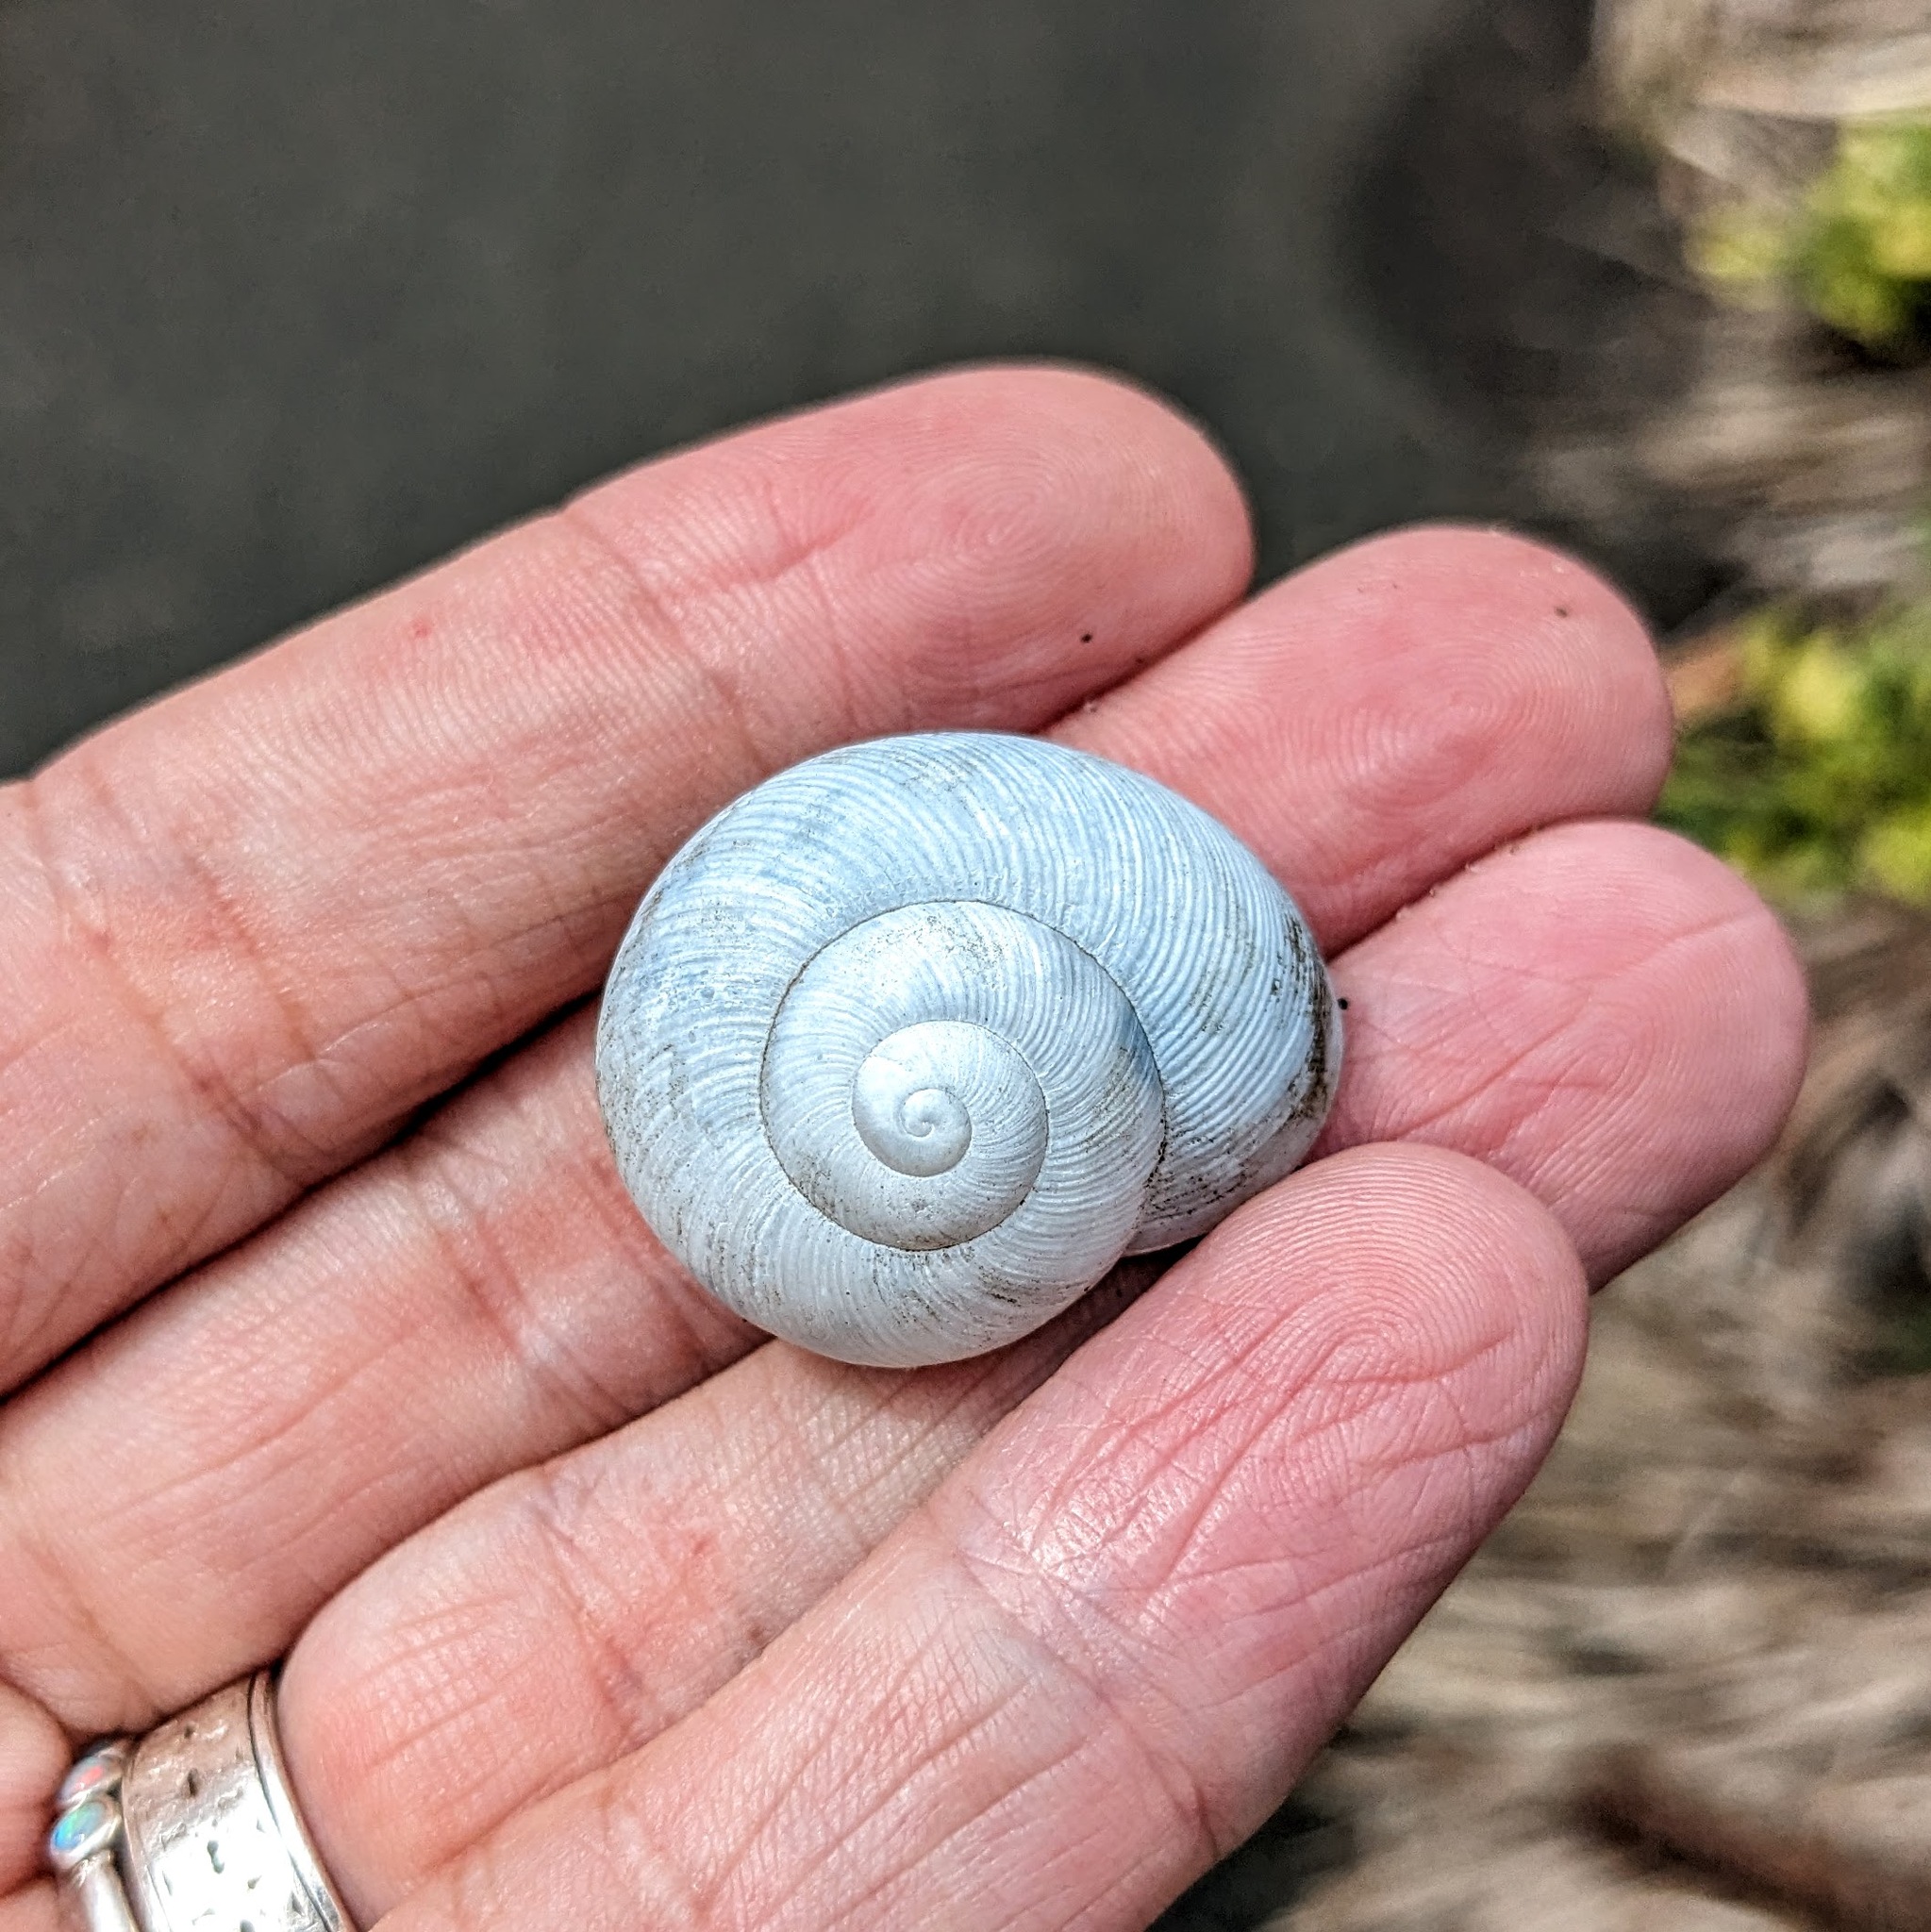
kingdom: Animalia
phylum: Mollusca
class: Gastropoda
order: Stylommatophora
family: Zachrysiidae
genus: Zachrysia
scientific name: Zachrysia provisoria
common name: Garden zachrysia
